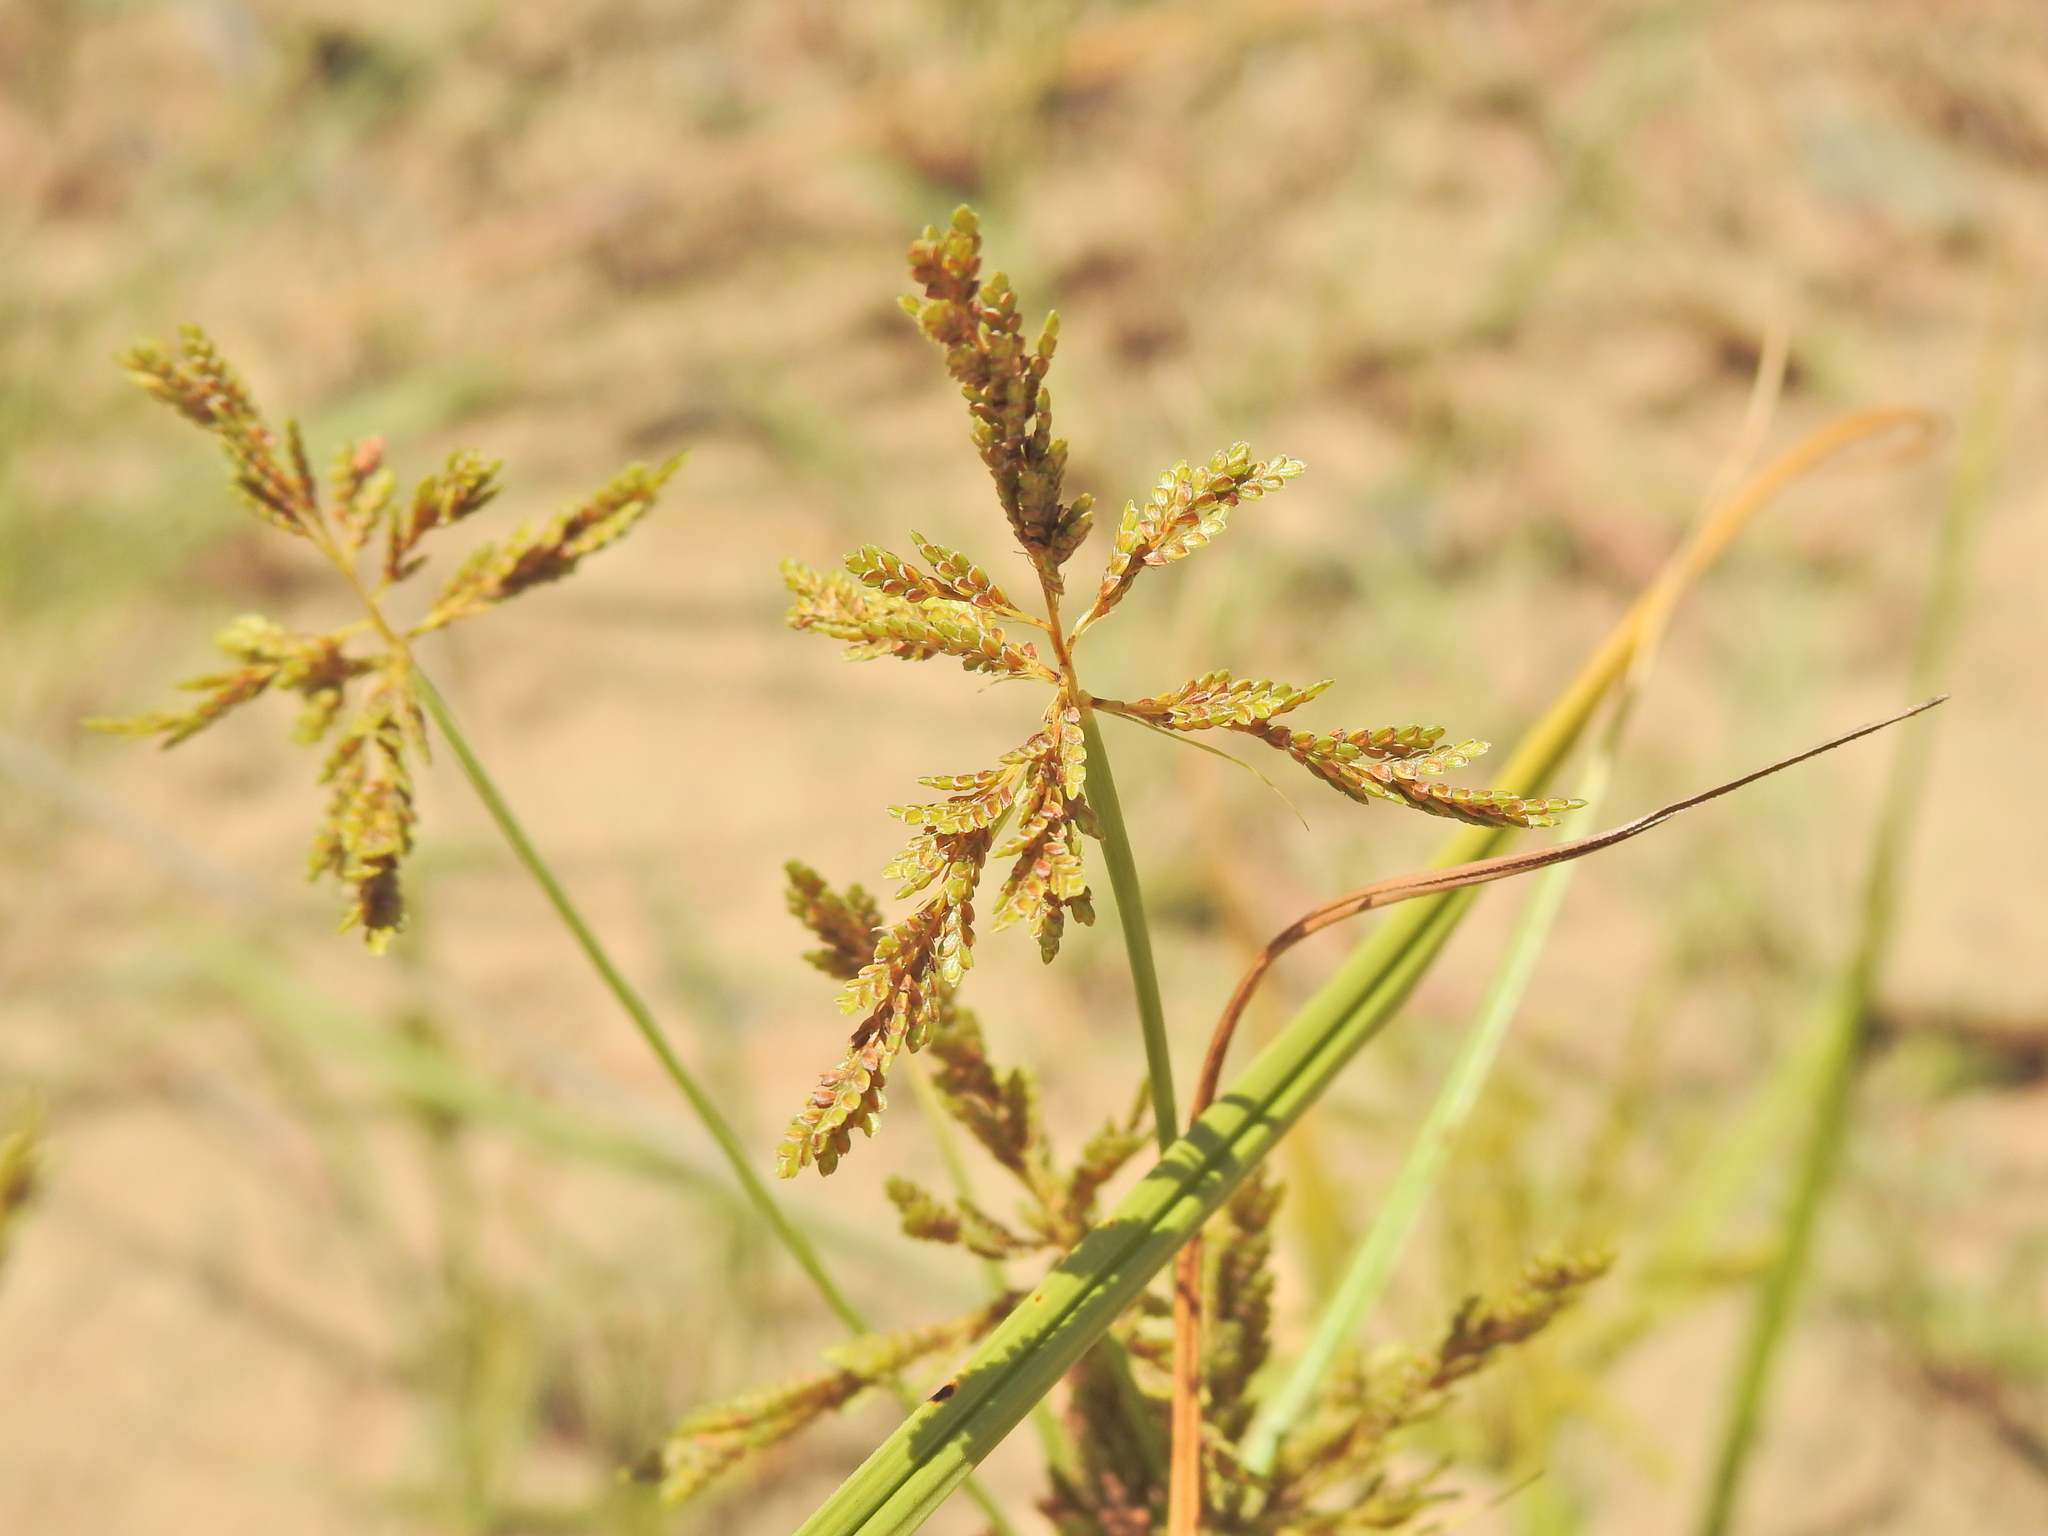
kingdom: Plantae
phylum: Tracheophyta
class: Liliopsida
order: Poales
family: Cyperaceae
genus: Cyperus
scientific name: Cyperus iria
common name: Ricefield flatsedge
